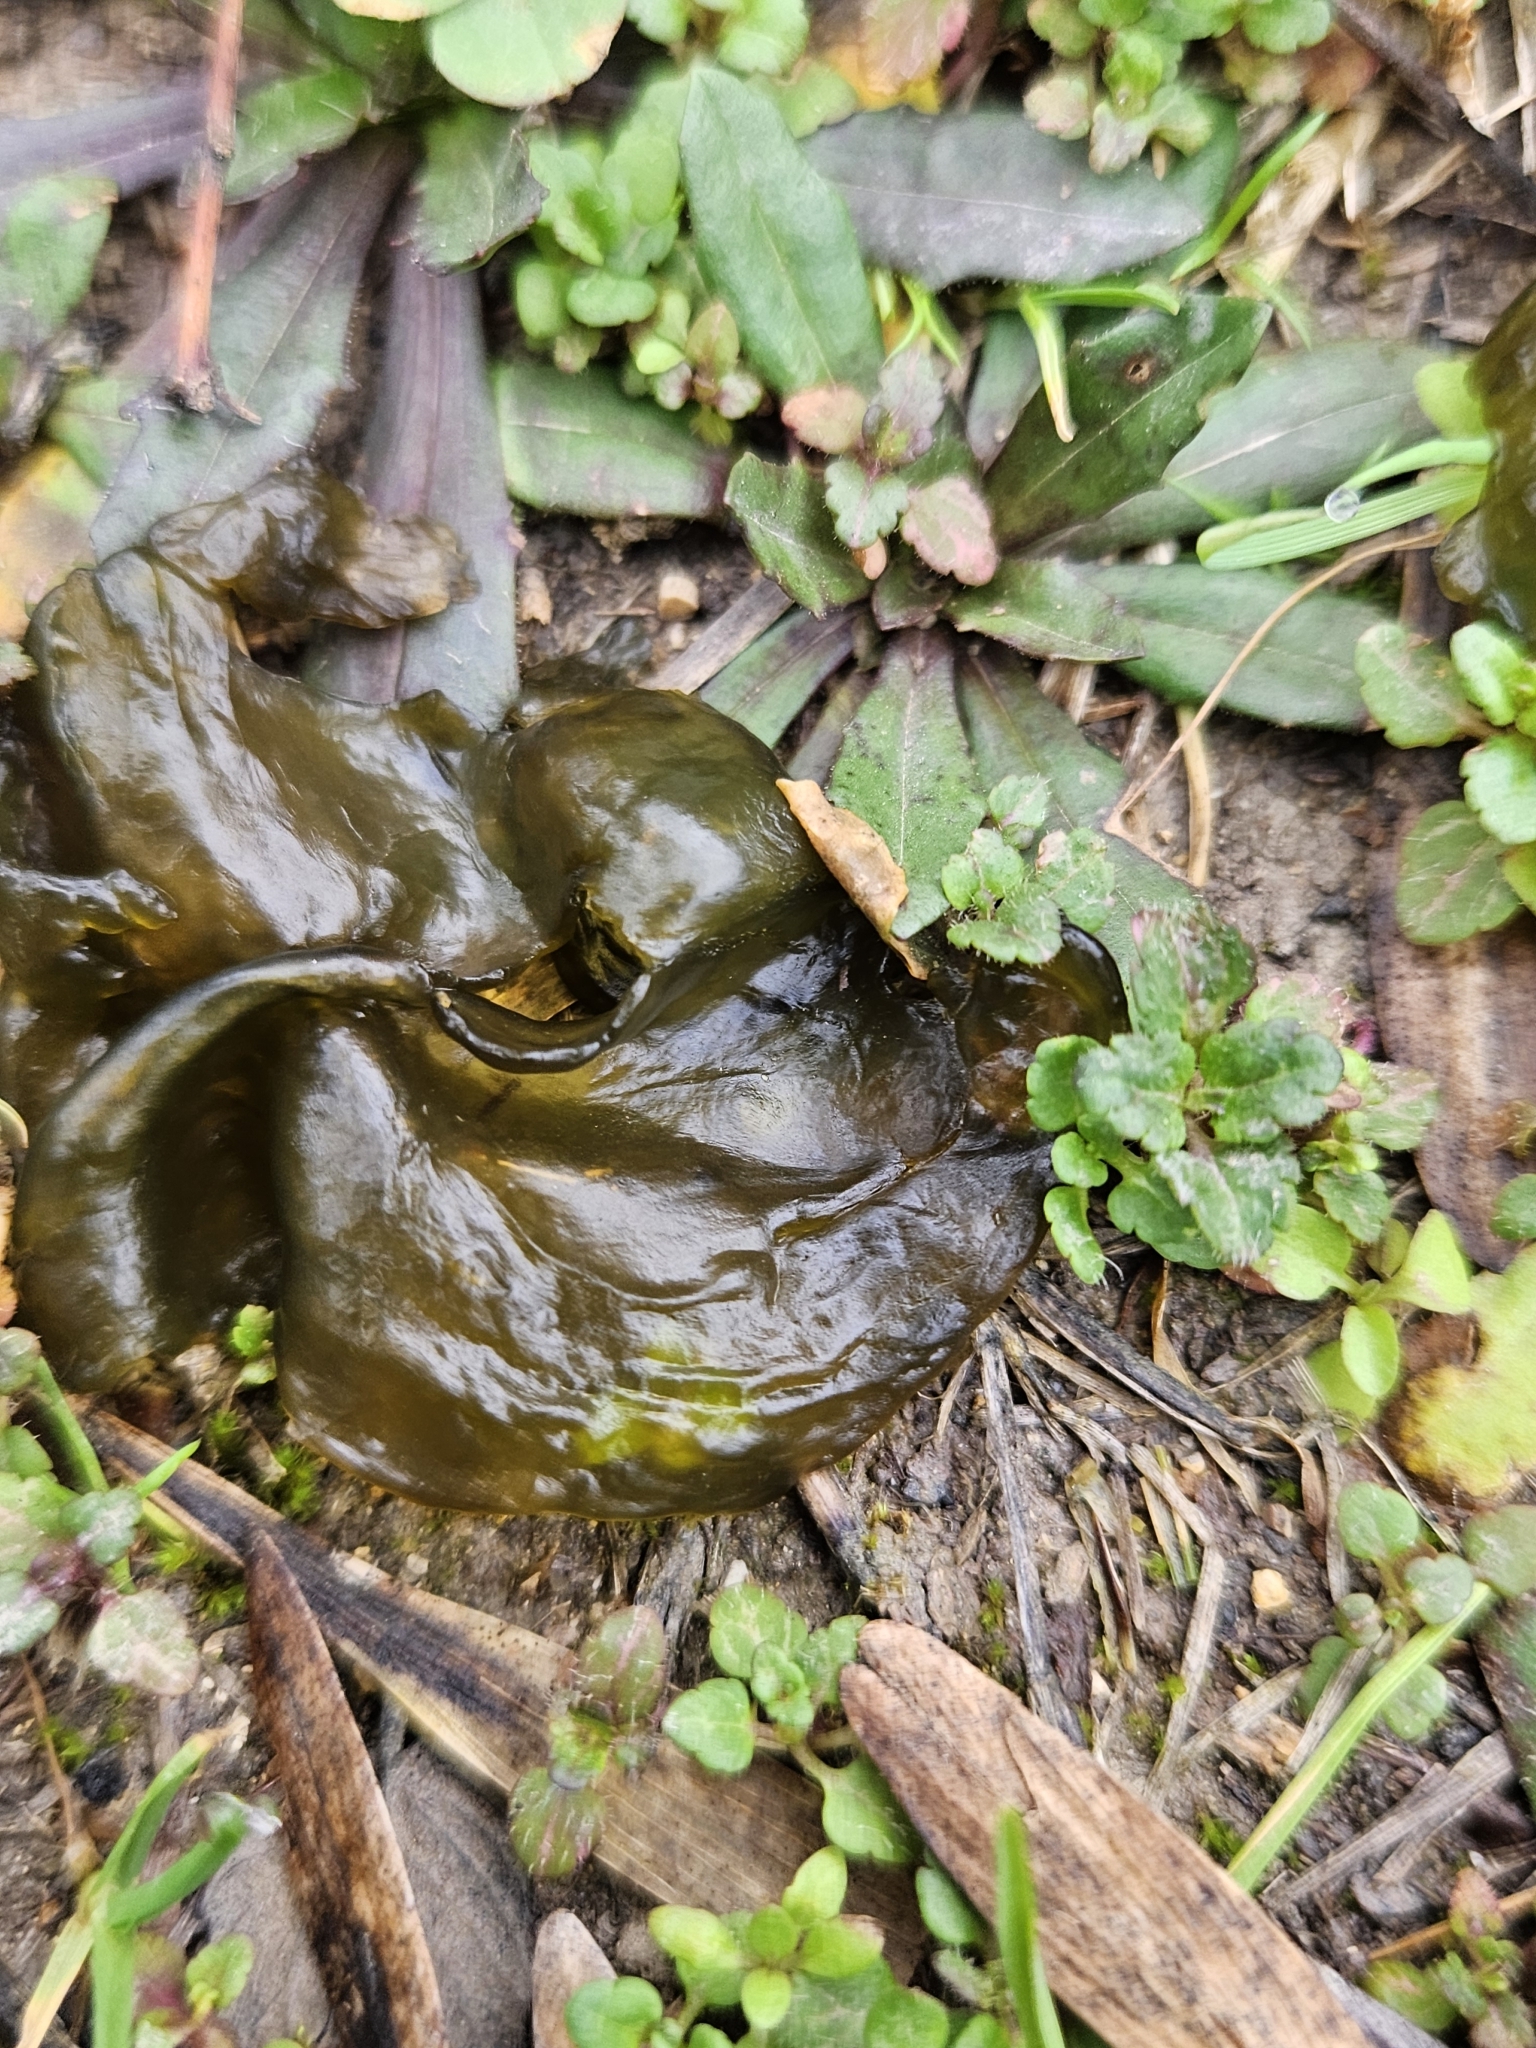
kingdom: Bacteria
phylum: Cyanobacteria
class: Cyanobacteriia
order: Cyanobacteriales
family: Nostocaceae
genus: Nostoc
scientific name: Nostoc commune
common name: Star jelly
